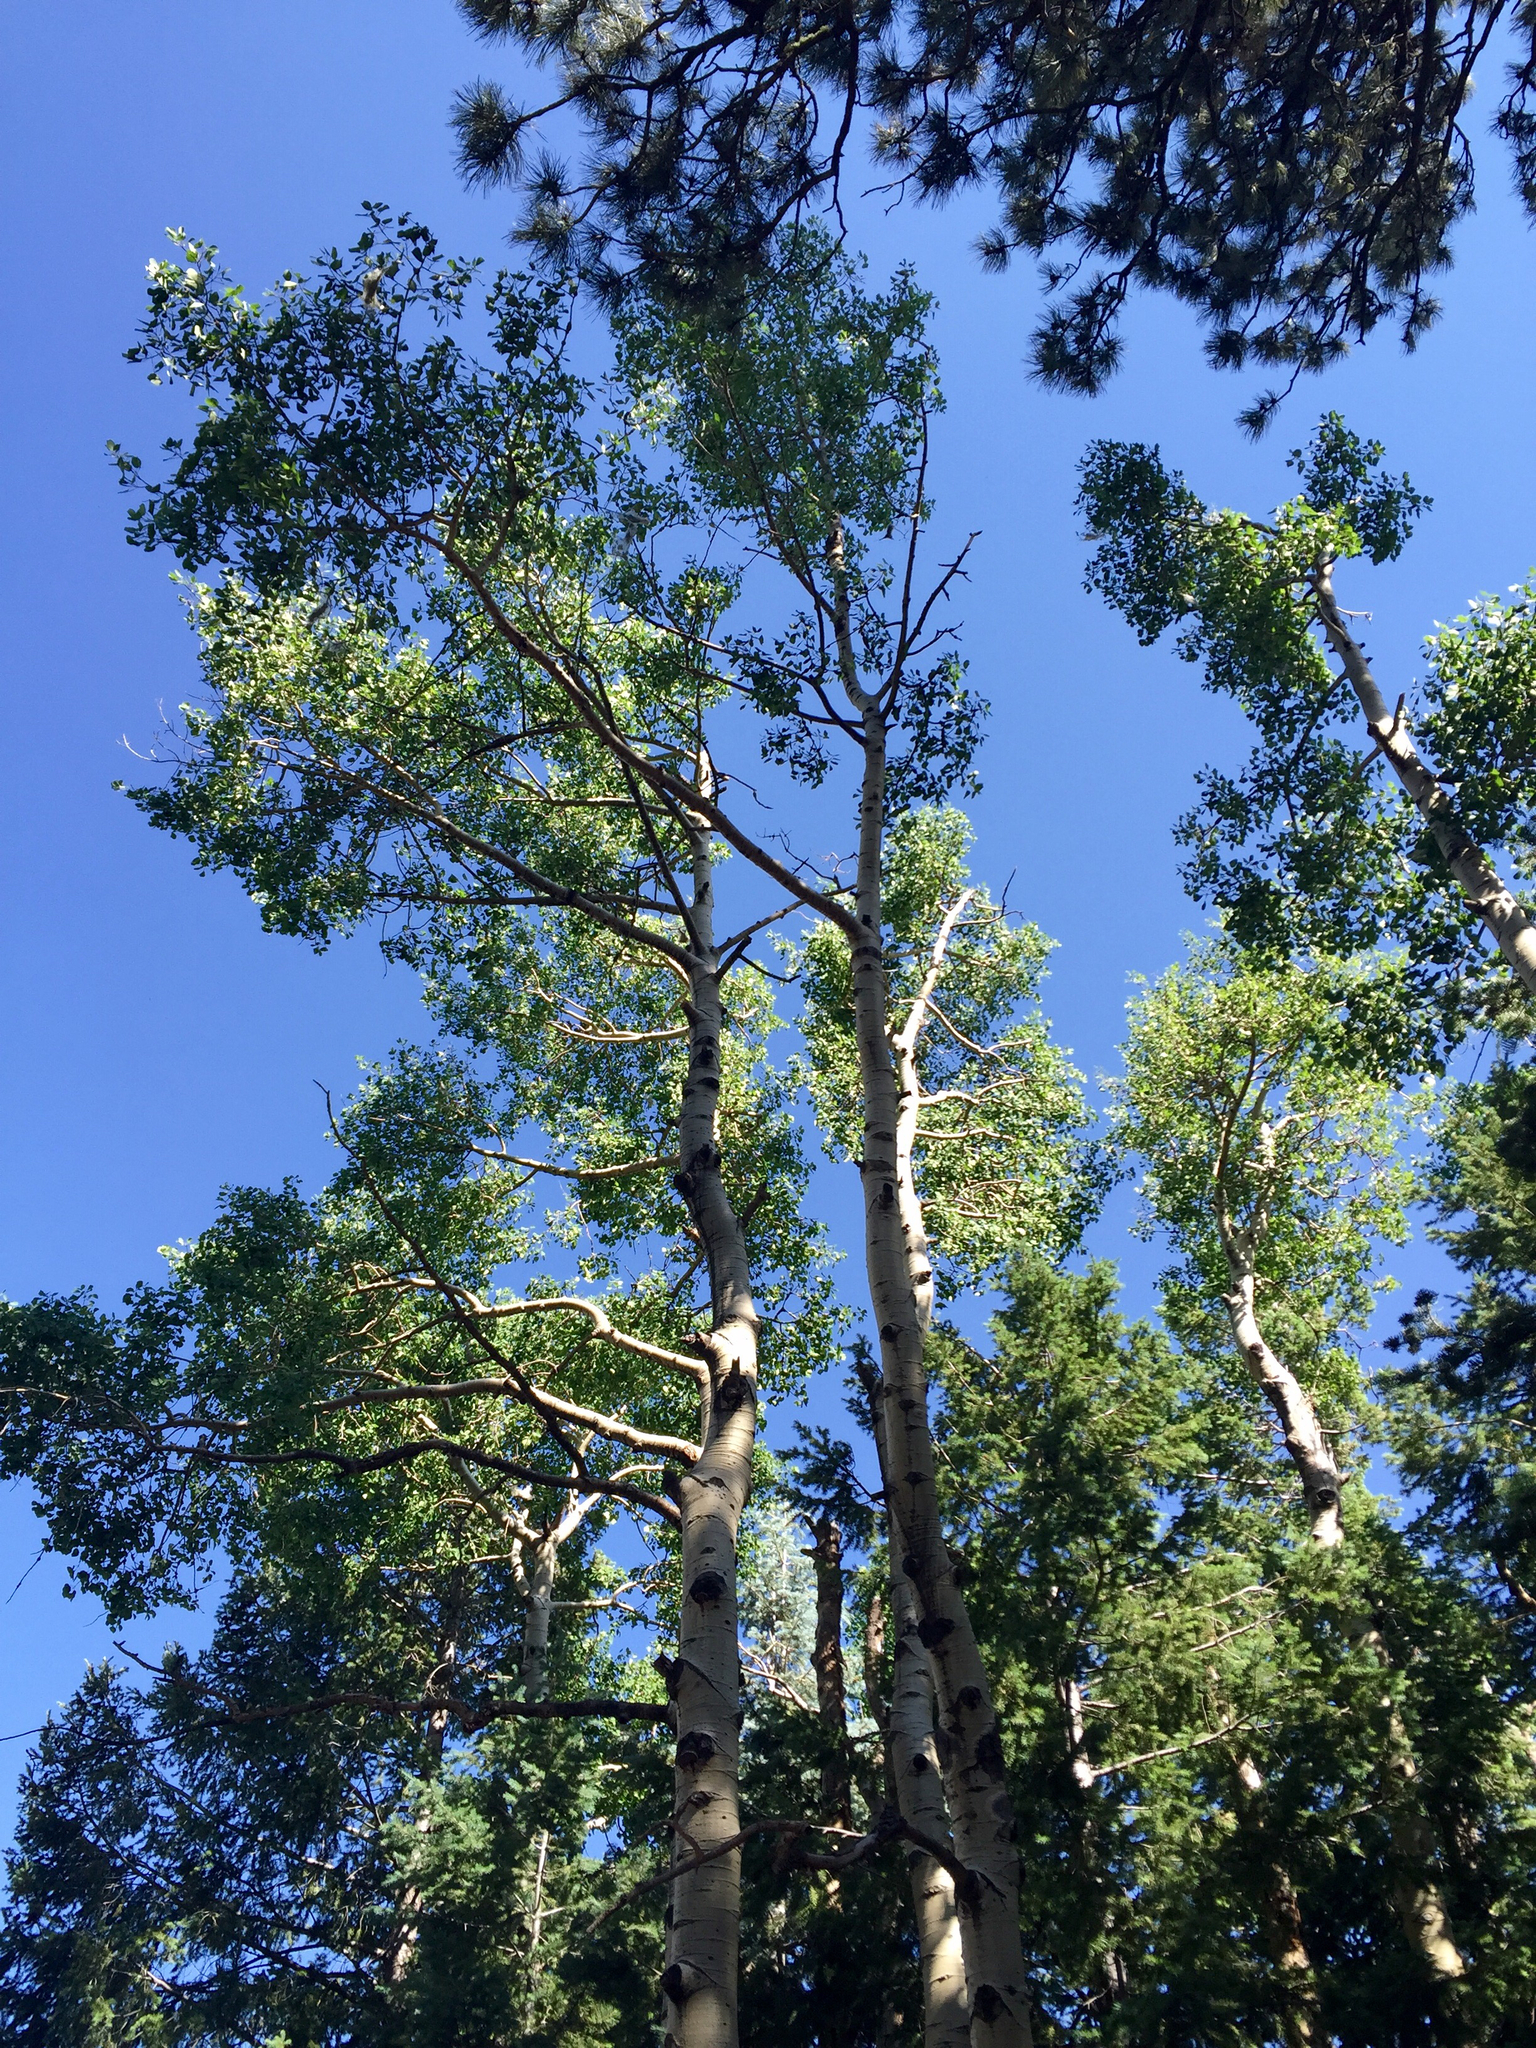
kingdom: Plantae
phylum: Tracheophyta
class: Magnoliopsida
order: Malpighiales
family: Salicaceae
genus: Populus
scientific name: Populus tremuloides
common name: Quaking aspen
